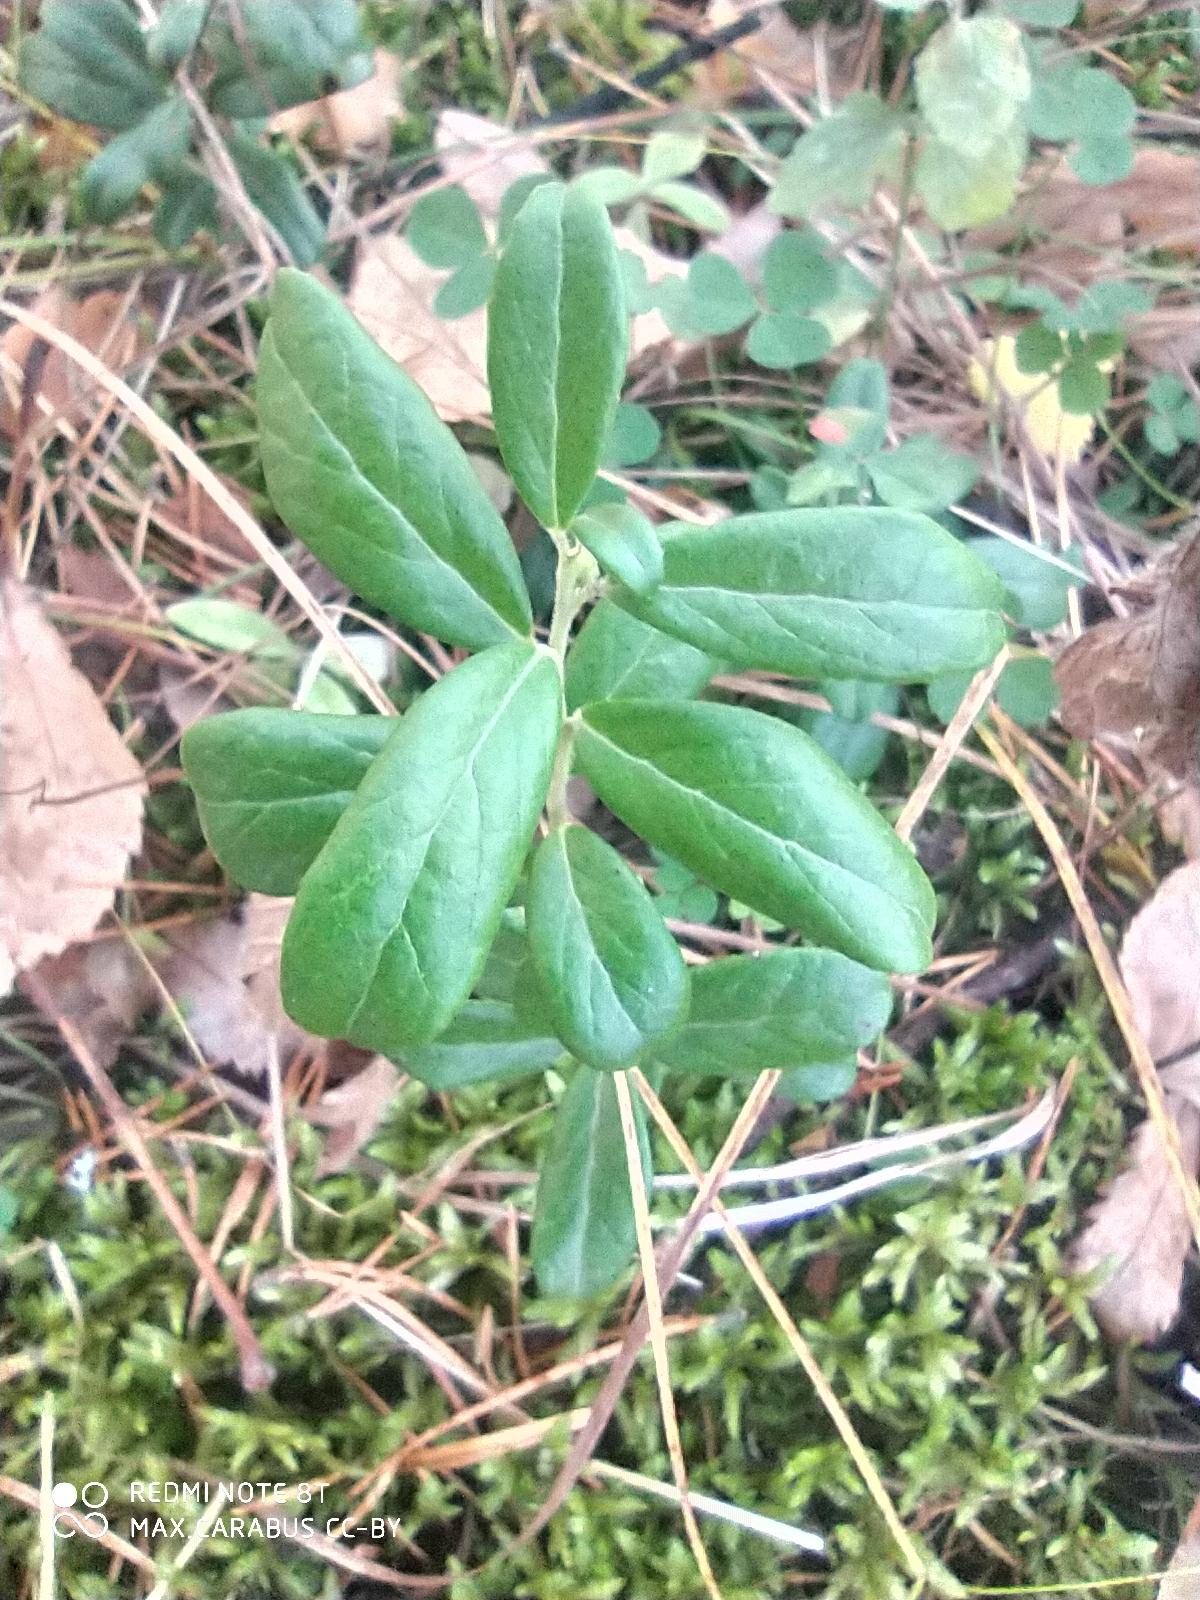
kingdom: Plantae
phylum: Tracheophyta
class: Magnoliopsida
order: Ericales
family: Ericaceae
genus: Vaccinium
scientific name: Vaccinium vitis-idaea
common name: Cowberry
